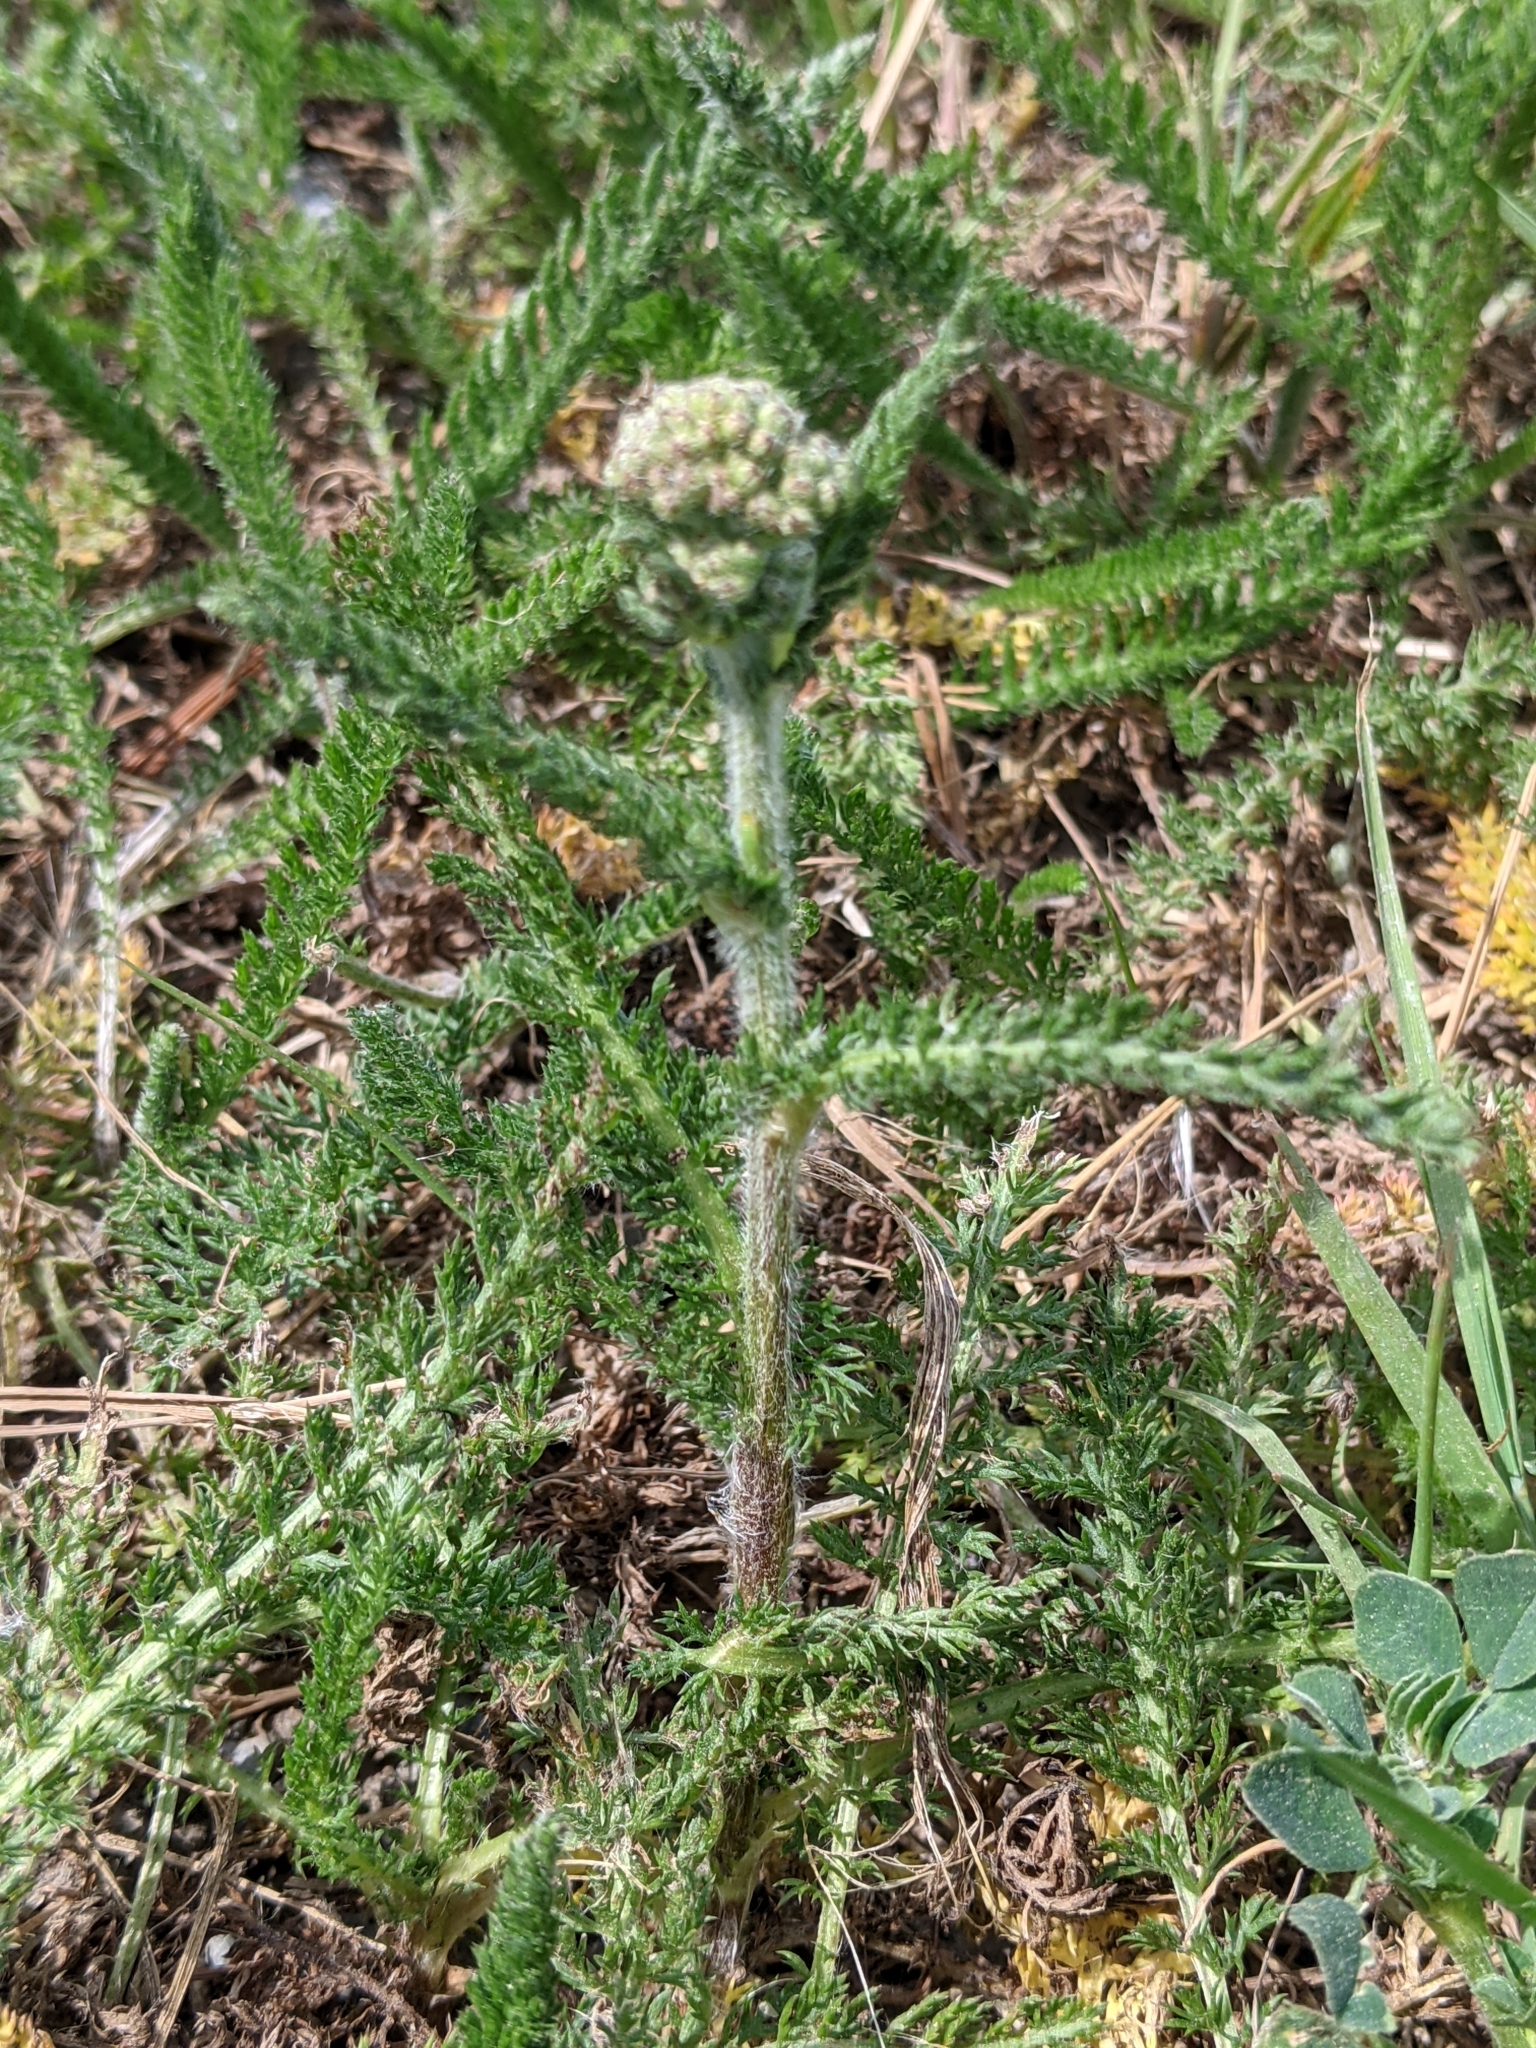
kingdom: Plantae
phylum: Tracheophyta
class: Magnoliopsida
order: Asterales
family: Asteraceae
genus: Achillea
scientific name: Achillea millefolium
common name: Yarrow
